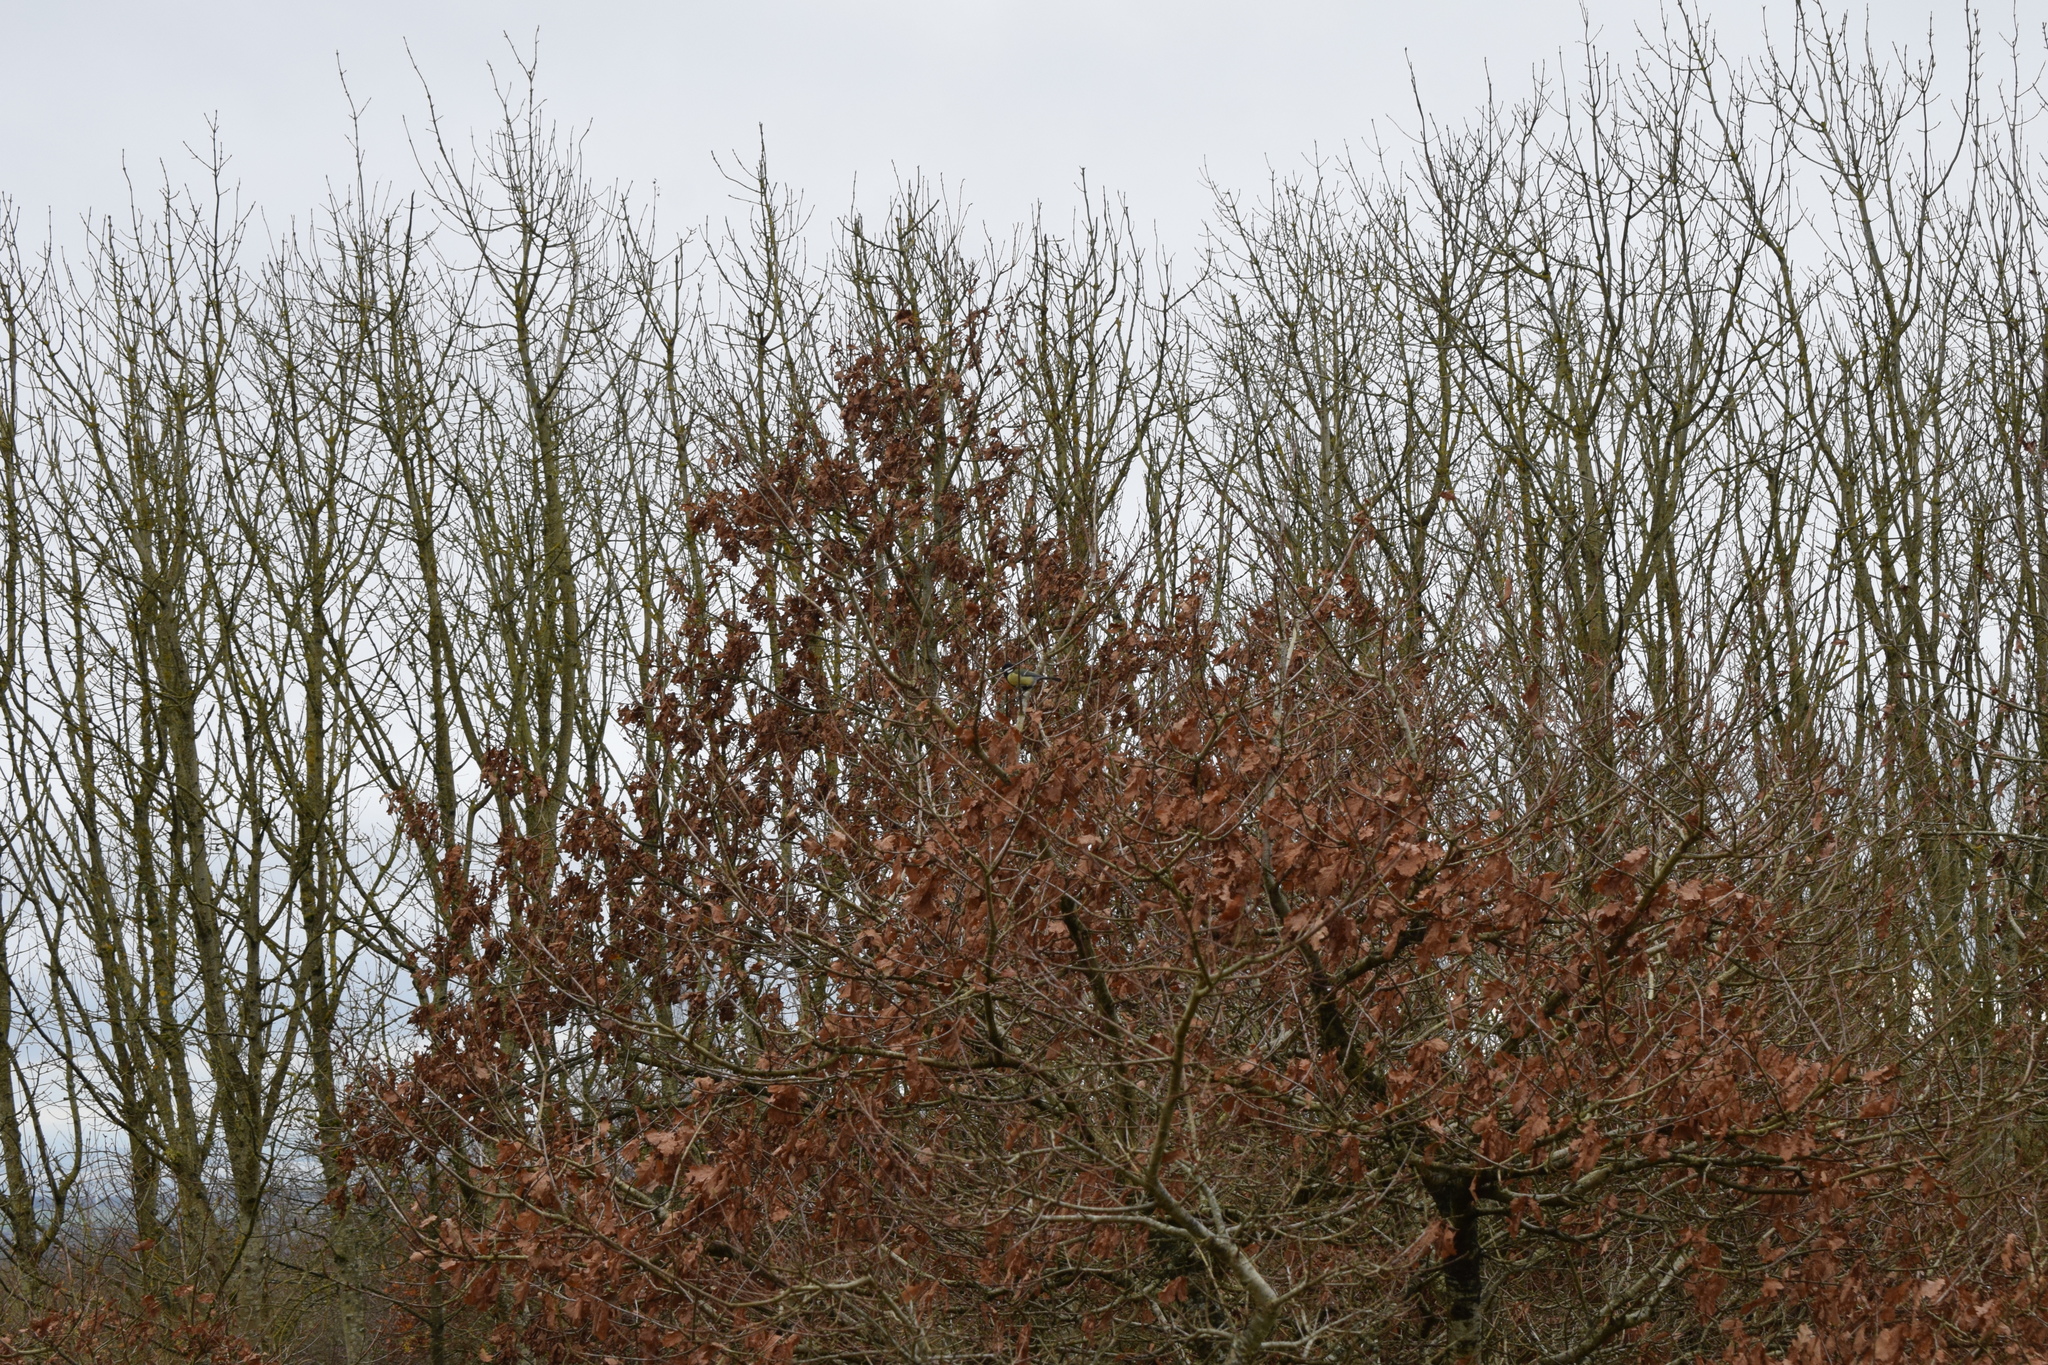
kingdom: Animalia
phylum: Chordata
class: Aves
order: Passeriformes
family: Paridae
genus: Parus
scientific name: Parus major
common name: Great tit
